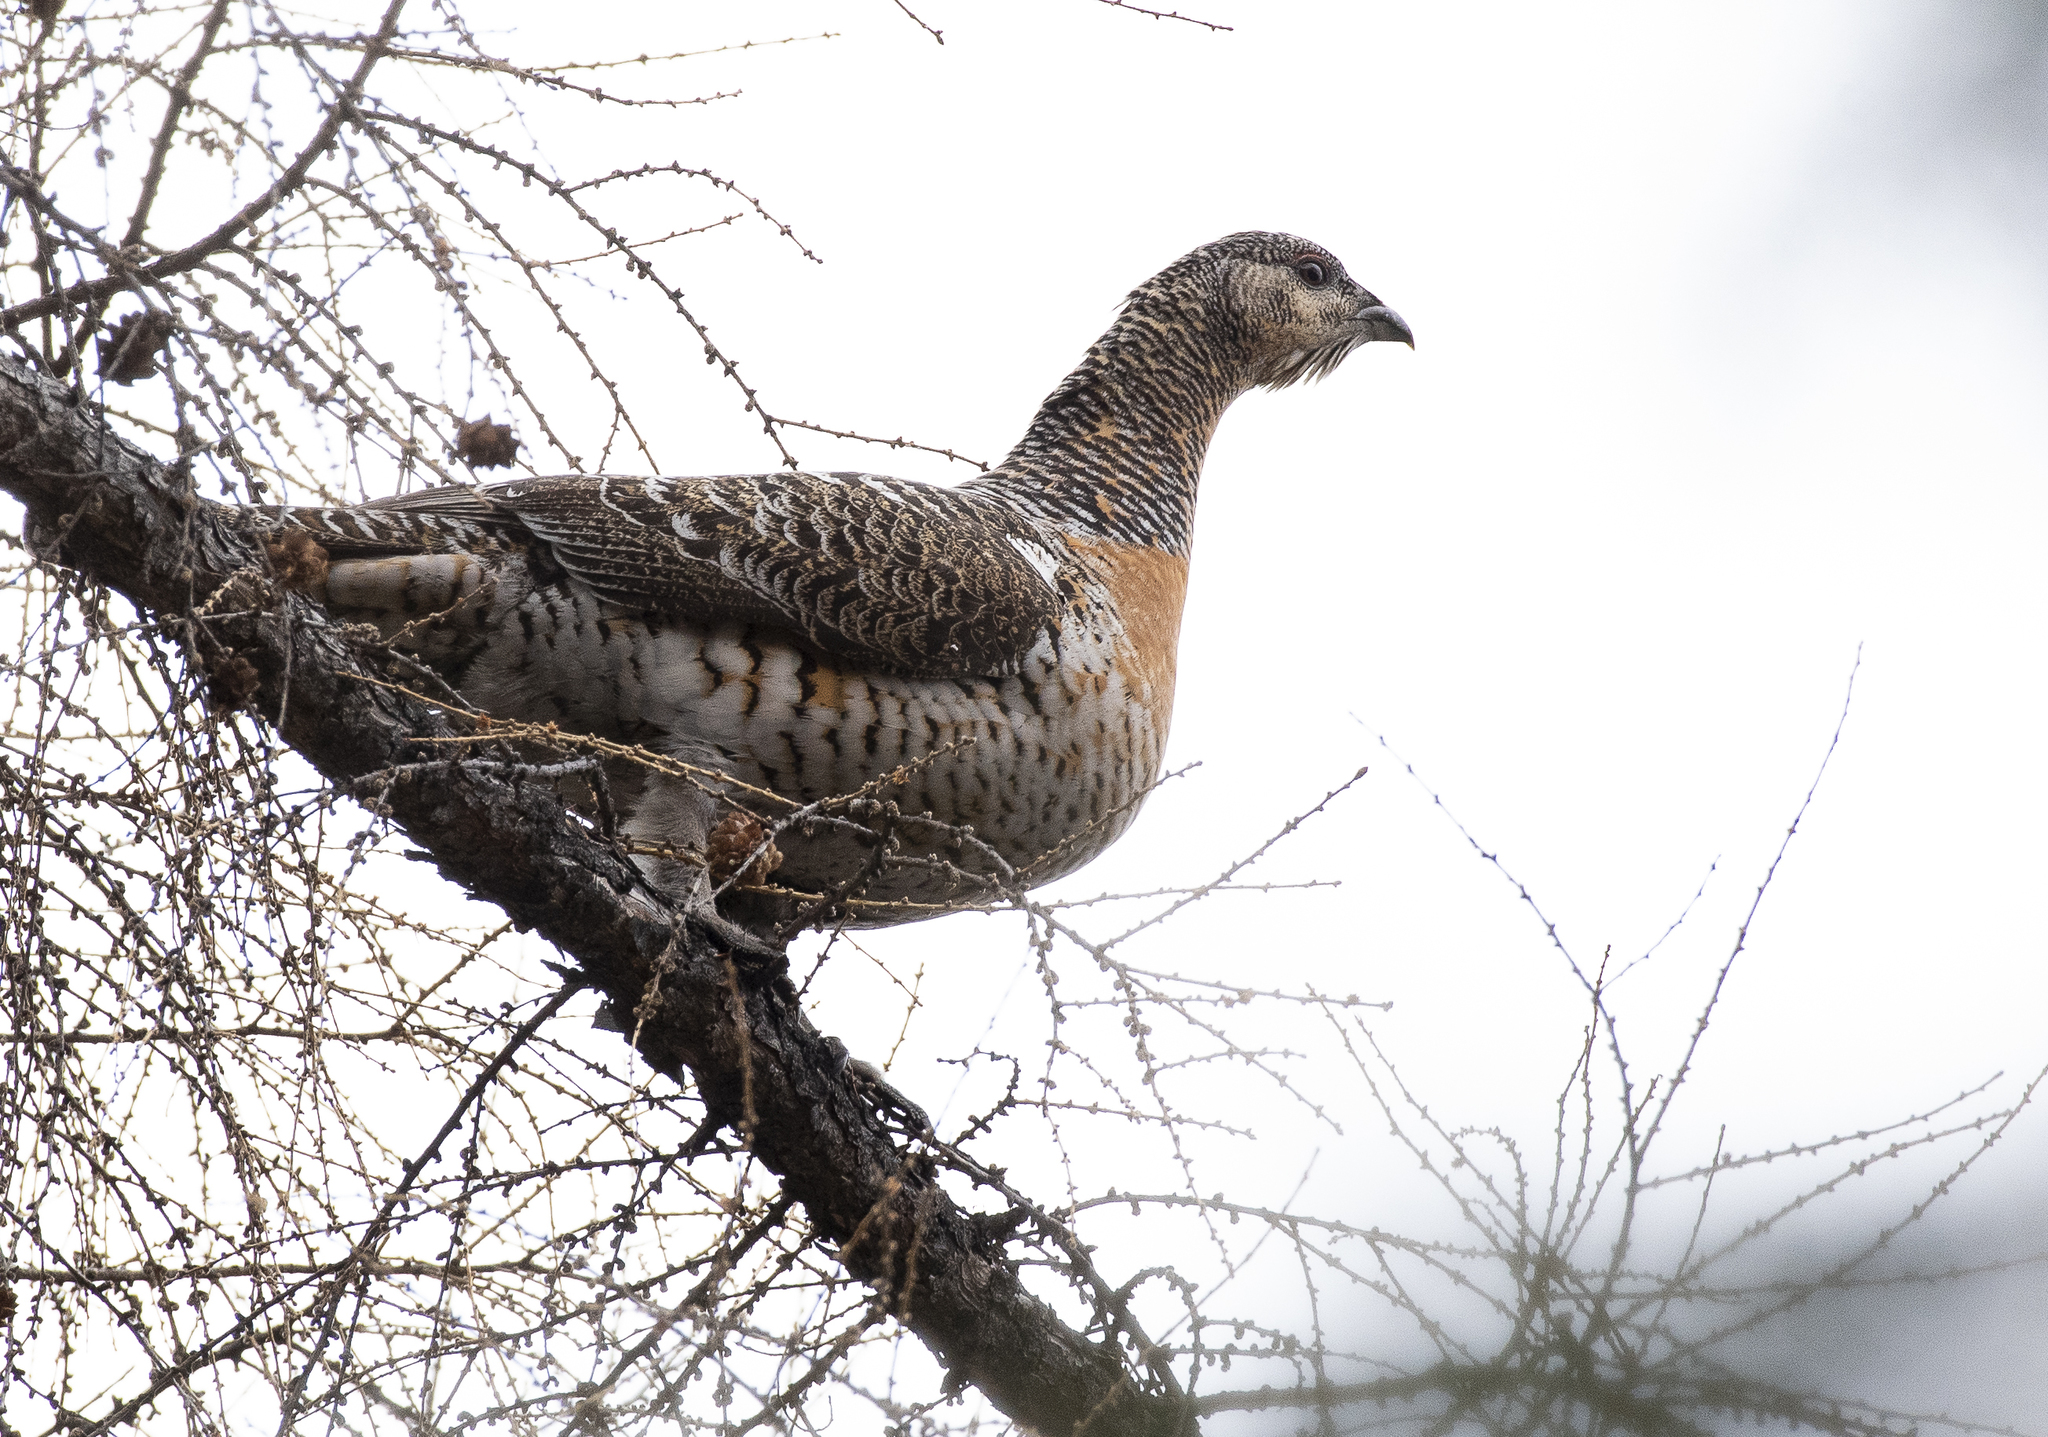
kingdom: Animalia
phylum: Chordata
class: Aves
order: Galliformes
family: Phasianidae
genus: Tetrao
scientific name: Tetrao urogallus
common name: Western capercaillie
